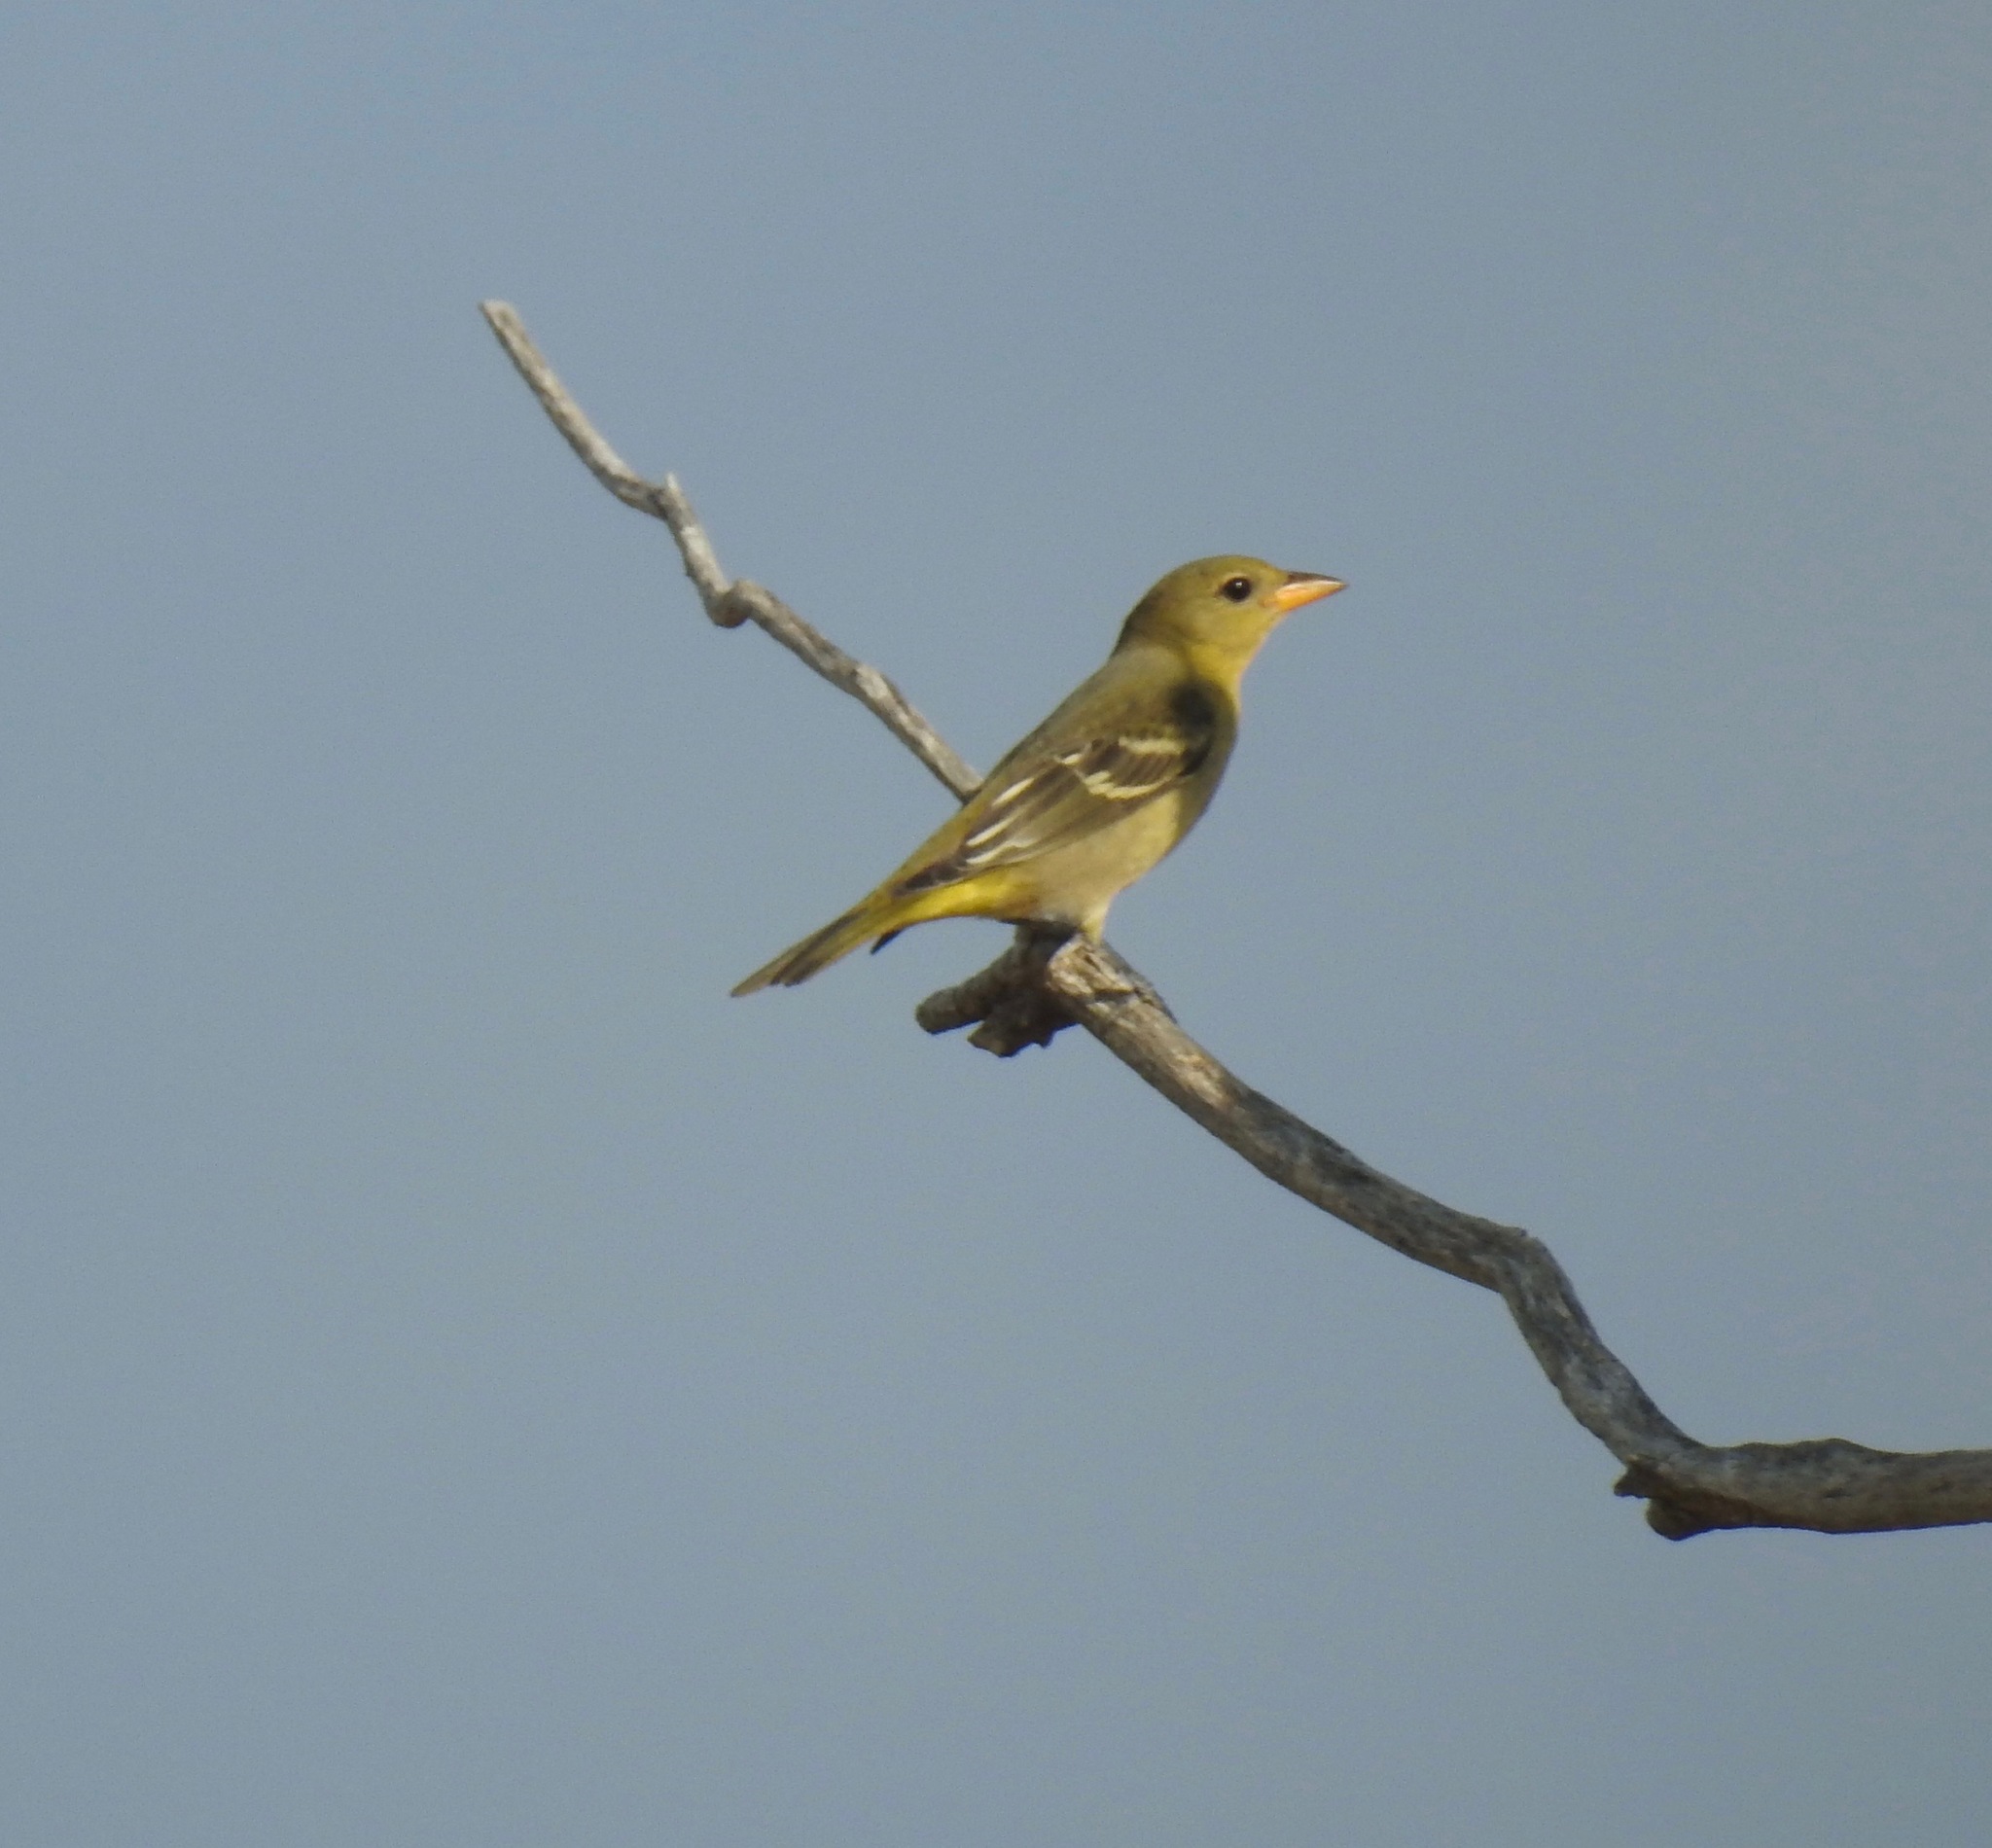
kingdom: Animalia
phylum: Chordata
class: Aves
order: Passeriformes
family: Cardinalidae
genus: Piranga
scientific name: Piranga ludoviciana
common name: Western tanager
